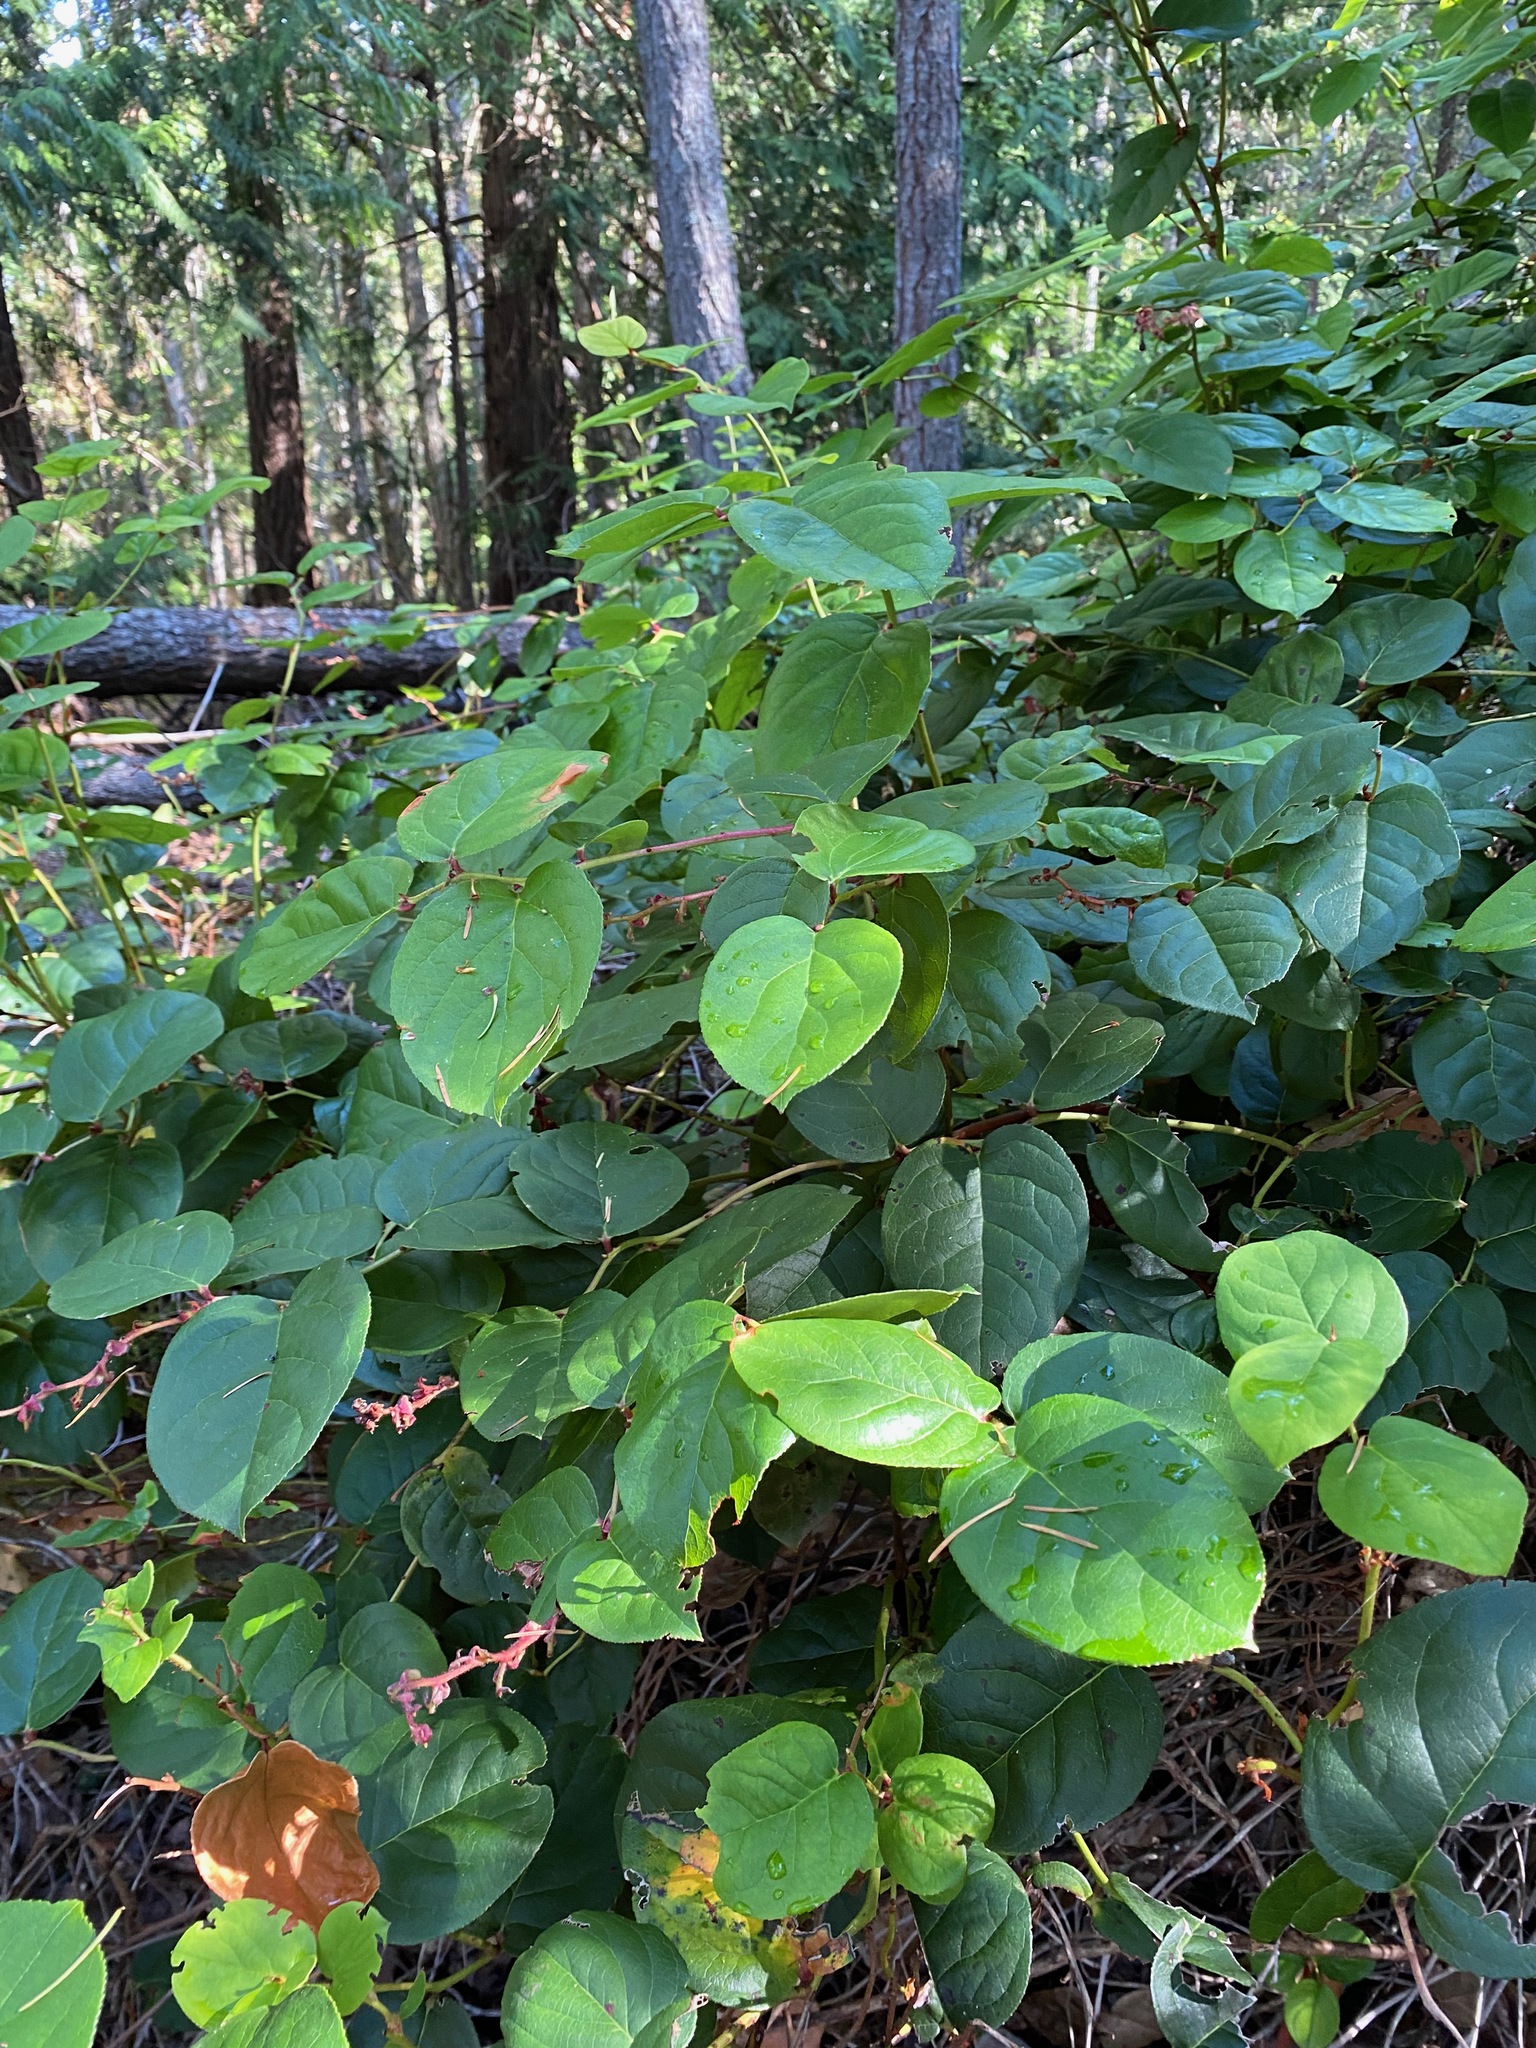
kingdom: Plantae
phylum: Tracheophyta
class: Magnoliopsida
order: Ericales
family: Ericaceae
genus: Gaultheria
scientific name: Gaultheria shallon
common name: Shallon
